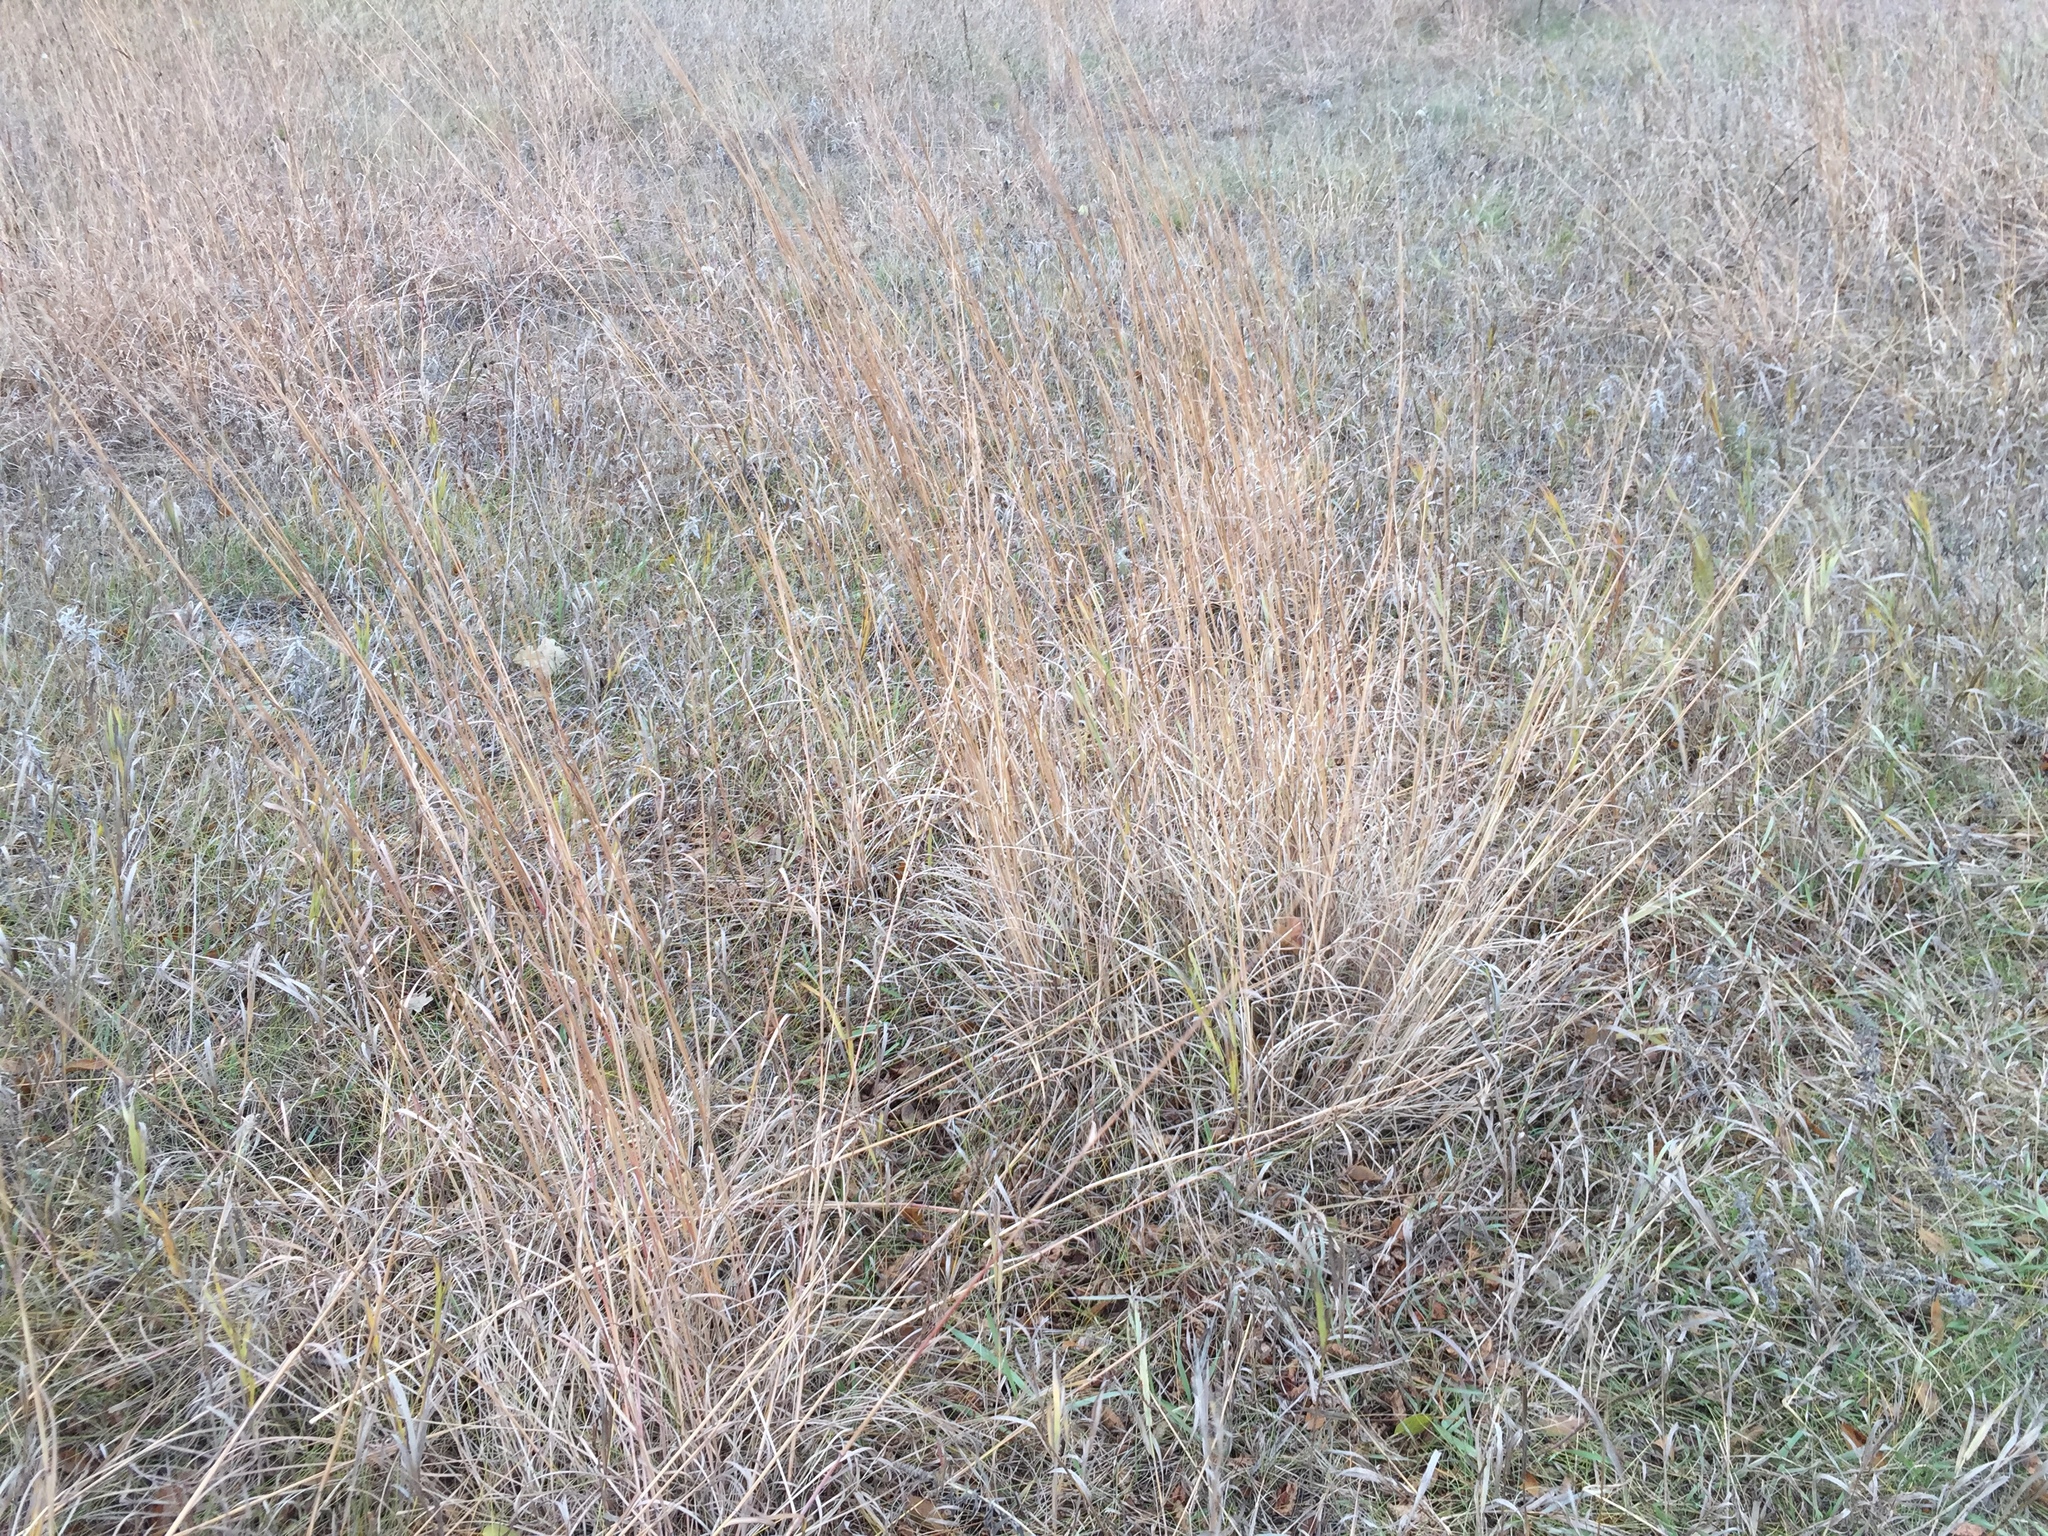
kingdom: Plantae
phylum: Tracheophyta
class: Liliopsida
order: Poales
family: Poaceae
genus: Andropogon
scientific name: Andropogon gerardi
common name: Big bluestem
